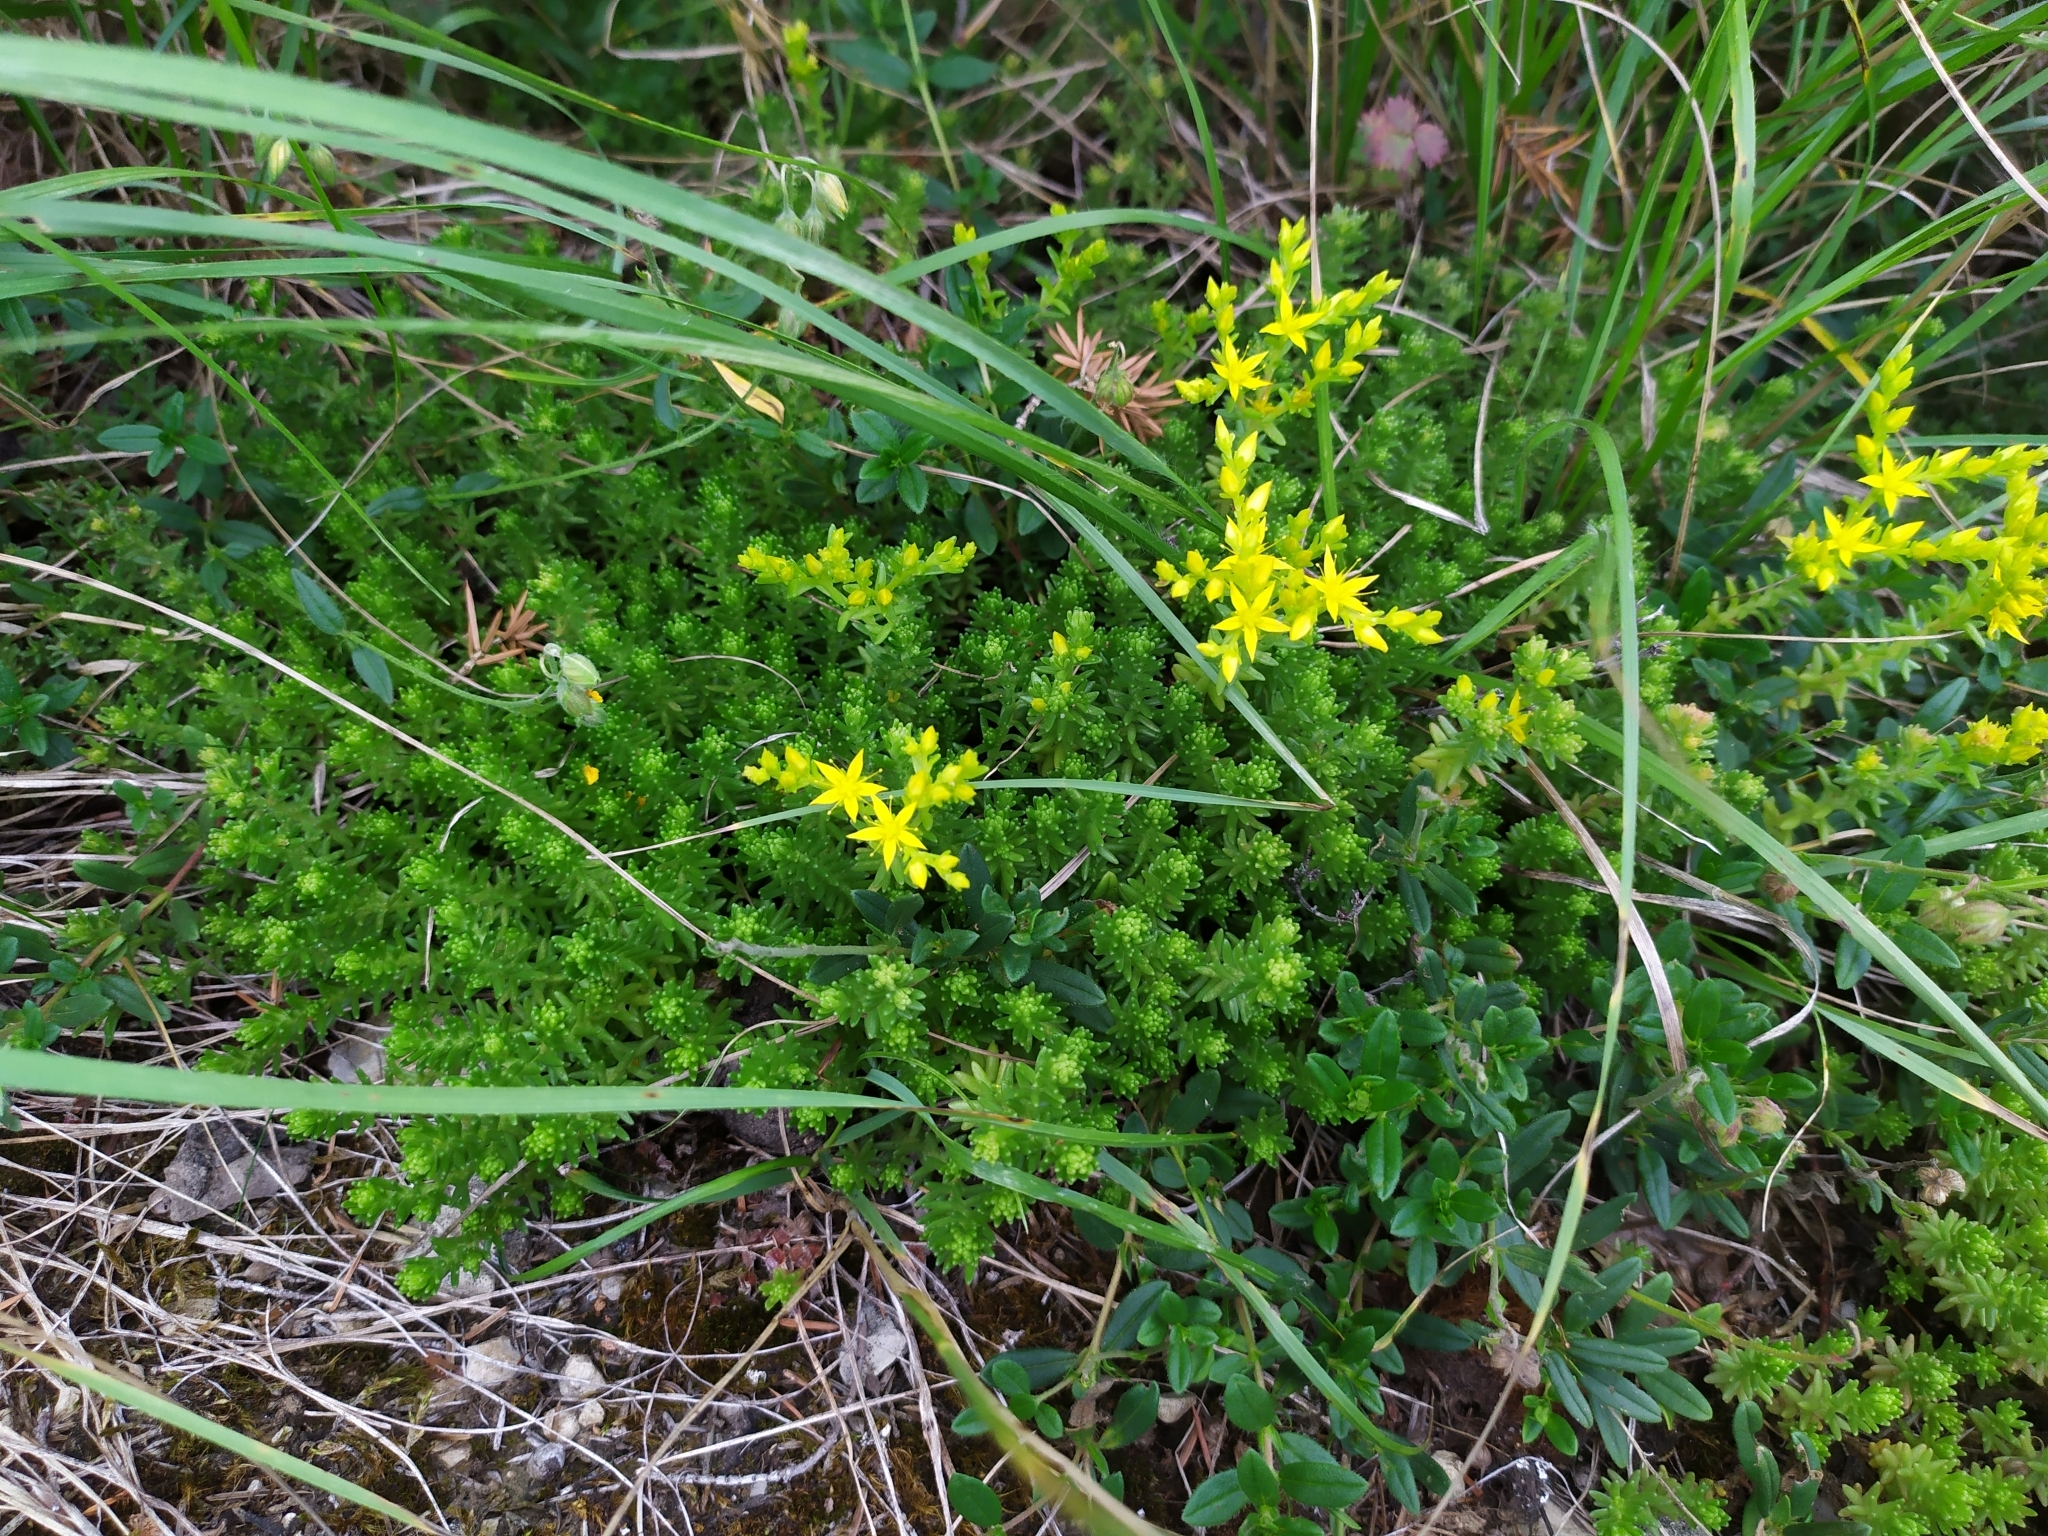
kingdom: Plantae
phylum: Tracheophyta
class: Magnoliopsida
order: Saxifragales
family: Crassulaceae
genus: Sedum
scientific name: Sedum sexangulare
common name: Tasteless stonecrop
